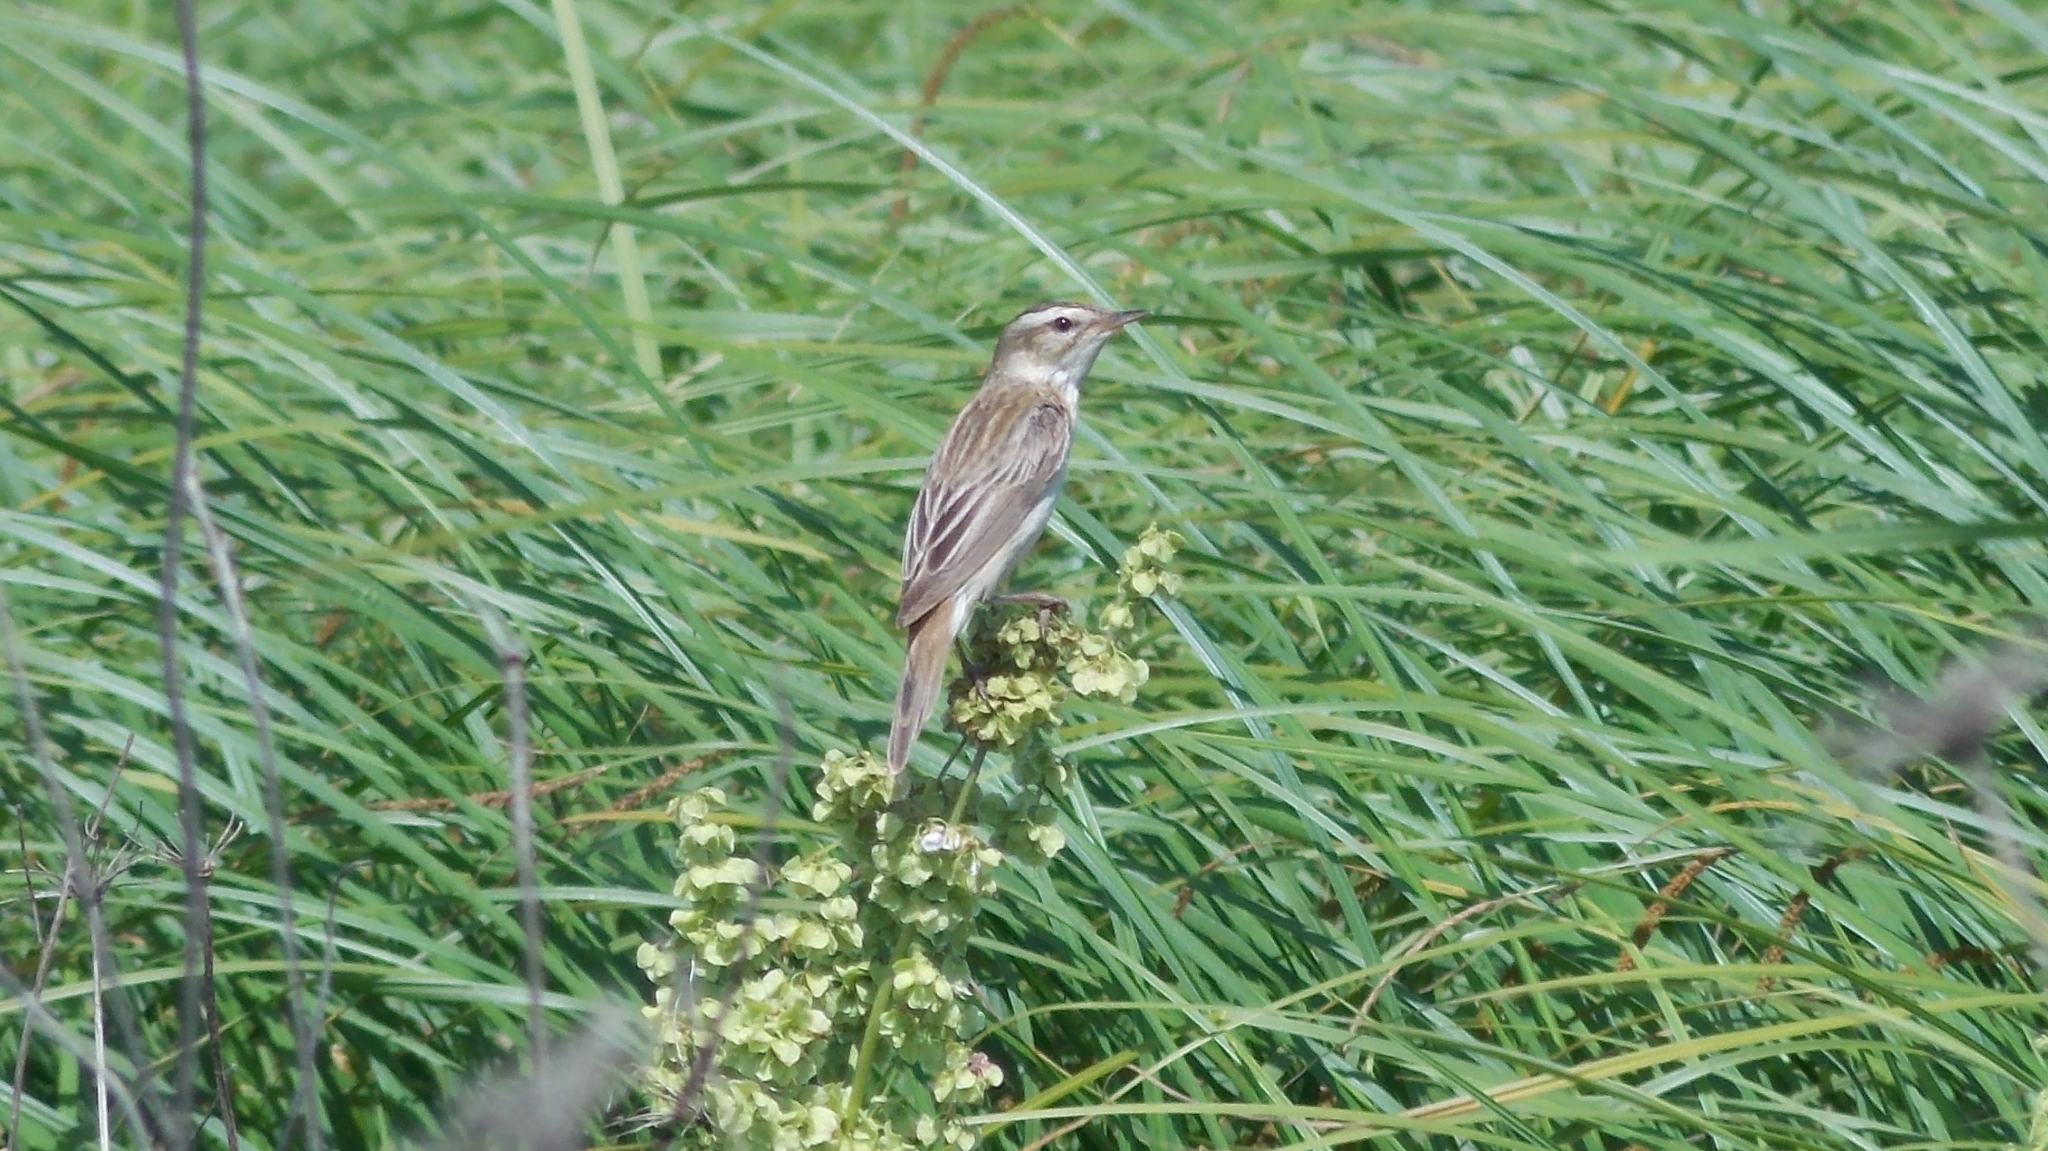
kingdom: Animalia
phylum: Chordata
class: Aves
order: Passeriformes
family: Acrocephalidae
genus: Acrocephalus
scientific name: Acrocephalus schoenobaenus
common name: Sedge warbler
